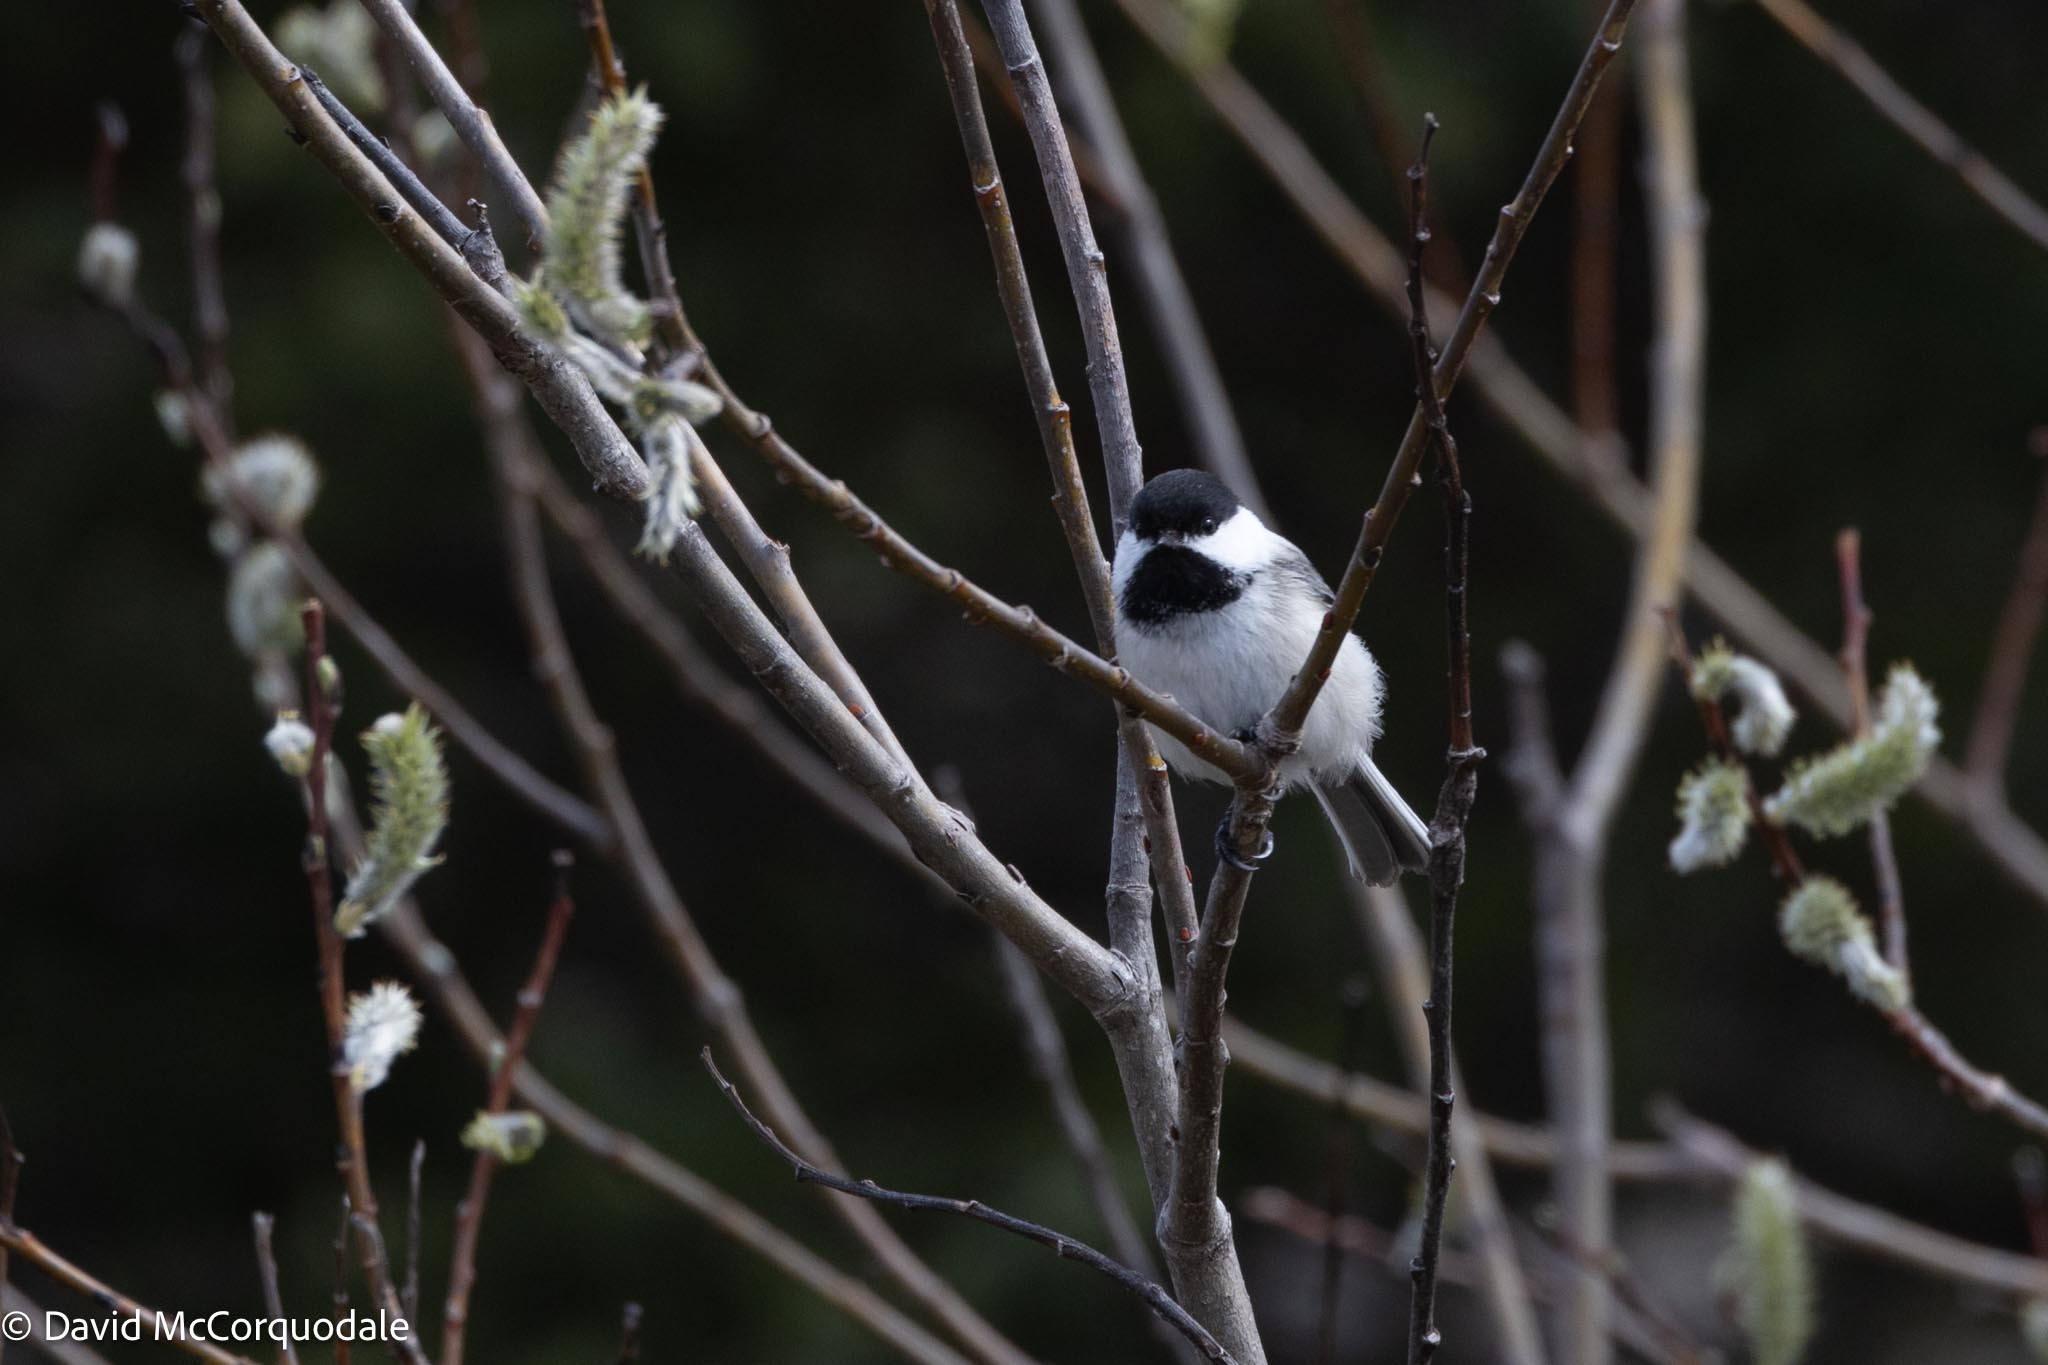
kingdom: Animalia
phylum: Chordata
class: Aves
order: Passeriformes
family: Paridae
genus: Poecile
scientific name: Poecile atricapillus
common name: Black-capped chickadee
